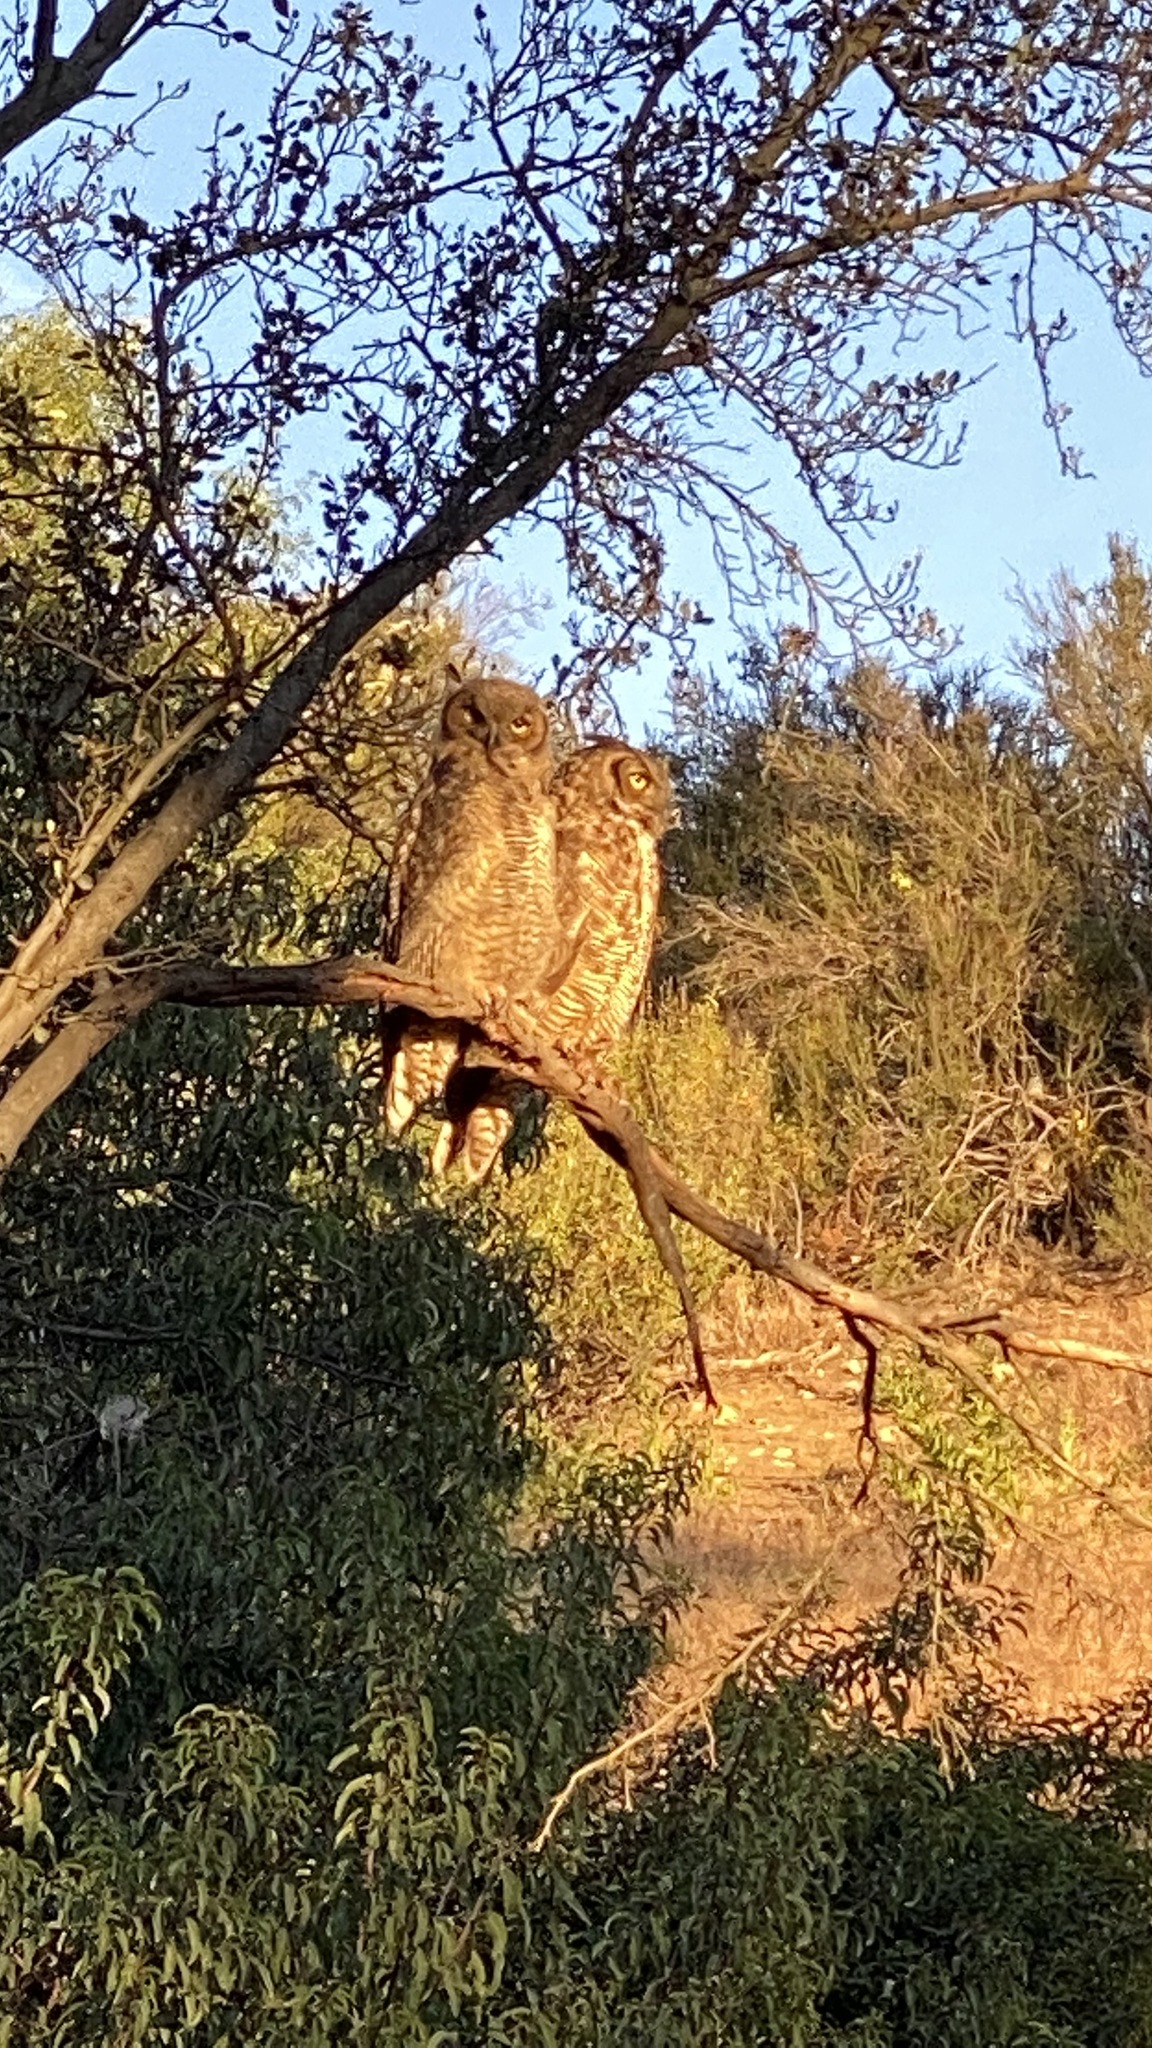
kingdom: Animalia
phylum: Chordata
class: Aves
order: Strigiformes
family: Strigidae
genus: Bubo
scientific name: Bubo virginianus
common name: Great horned owl
